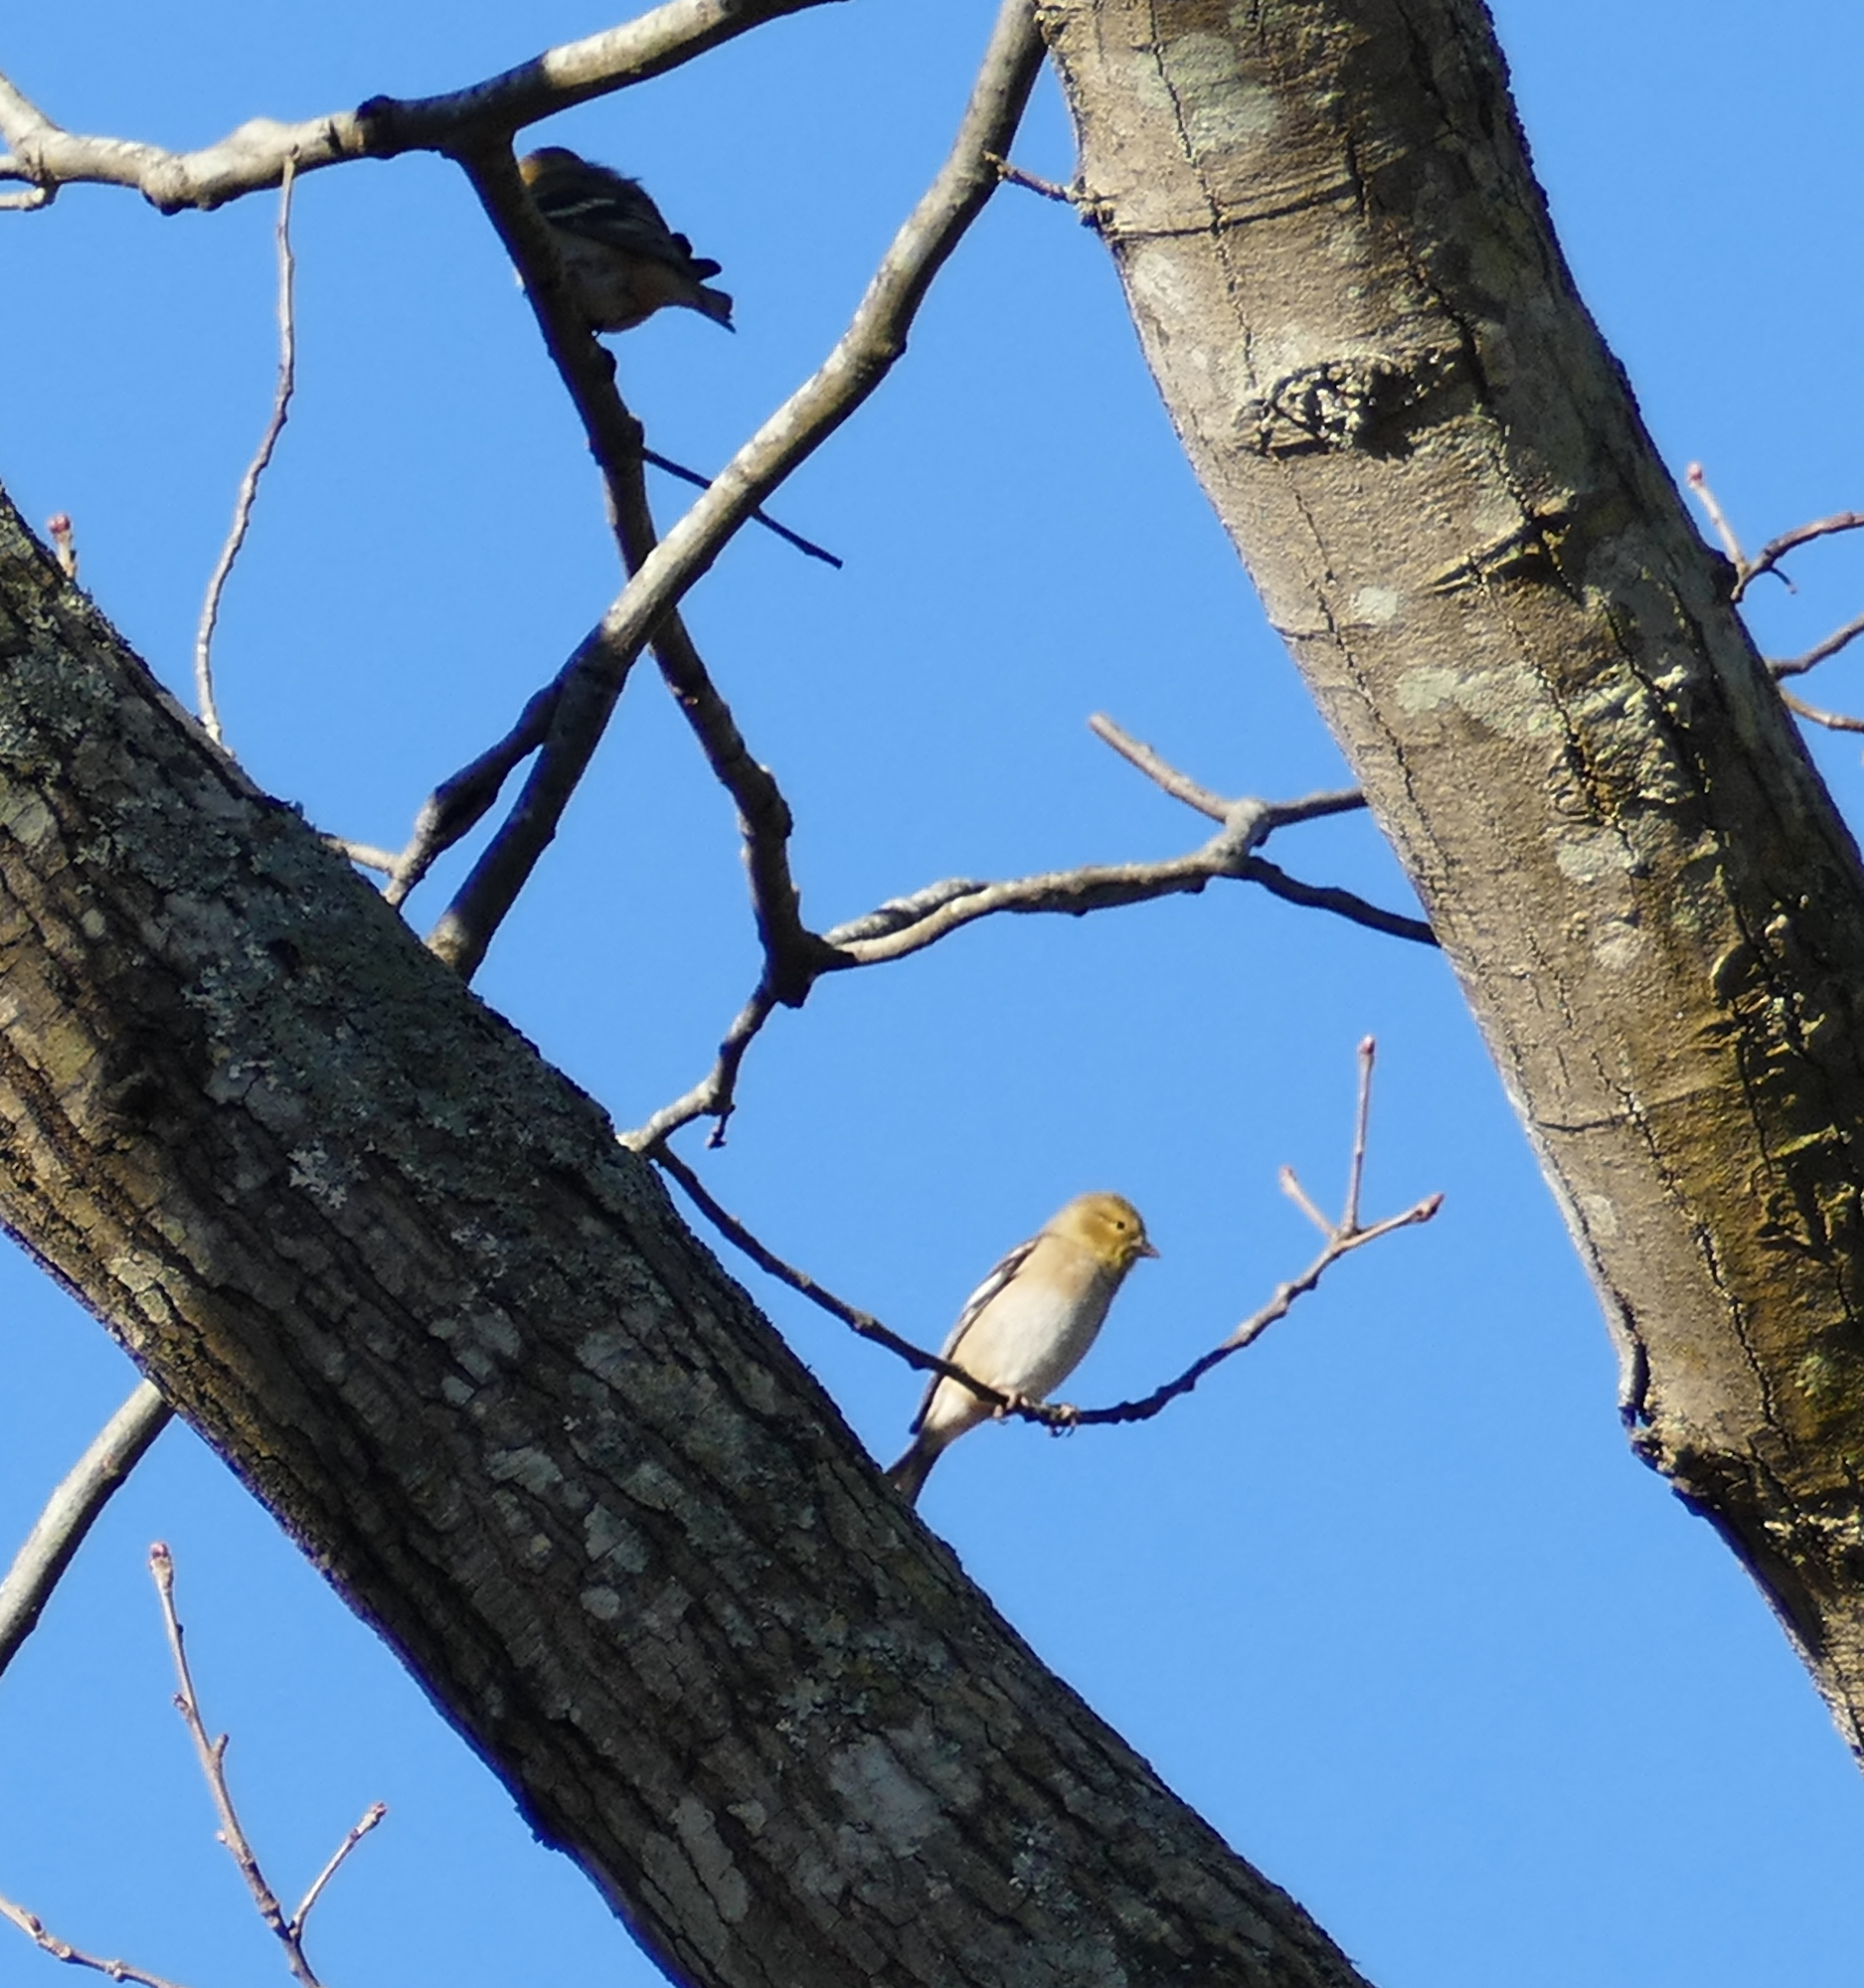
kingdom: Animalia
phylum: Chordata
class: Aves
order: Passeriformes
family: Fringillidae
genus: Spinus
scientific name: Spinus tristis
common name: American goldfinch
